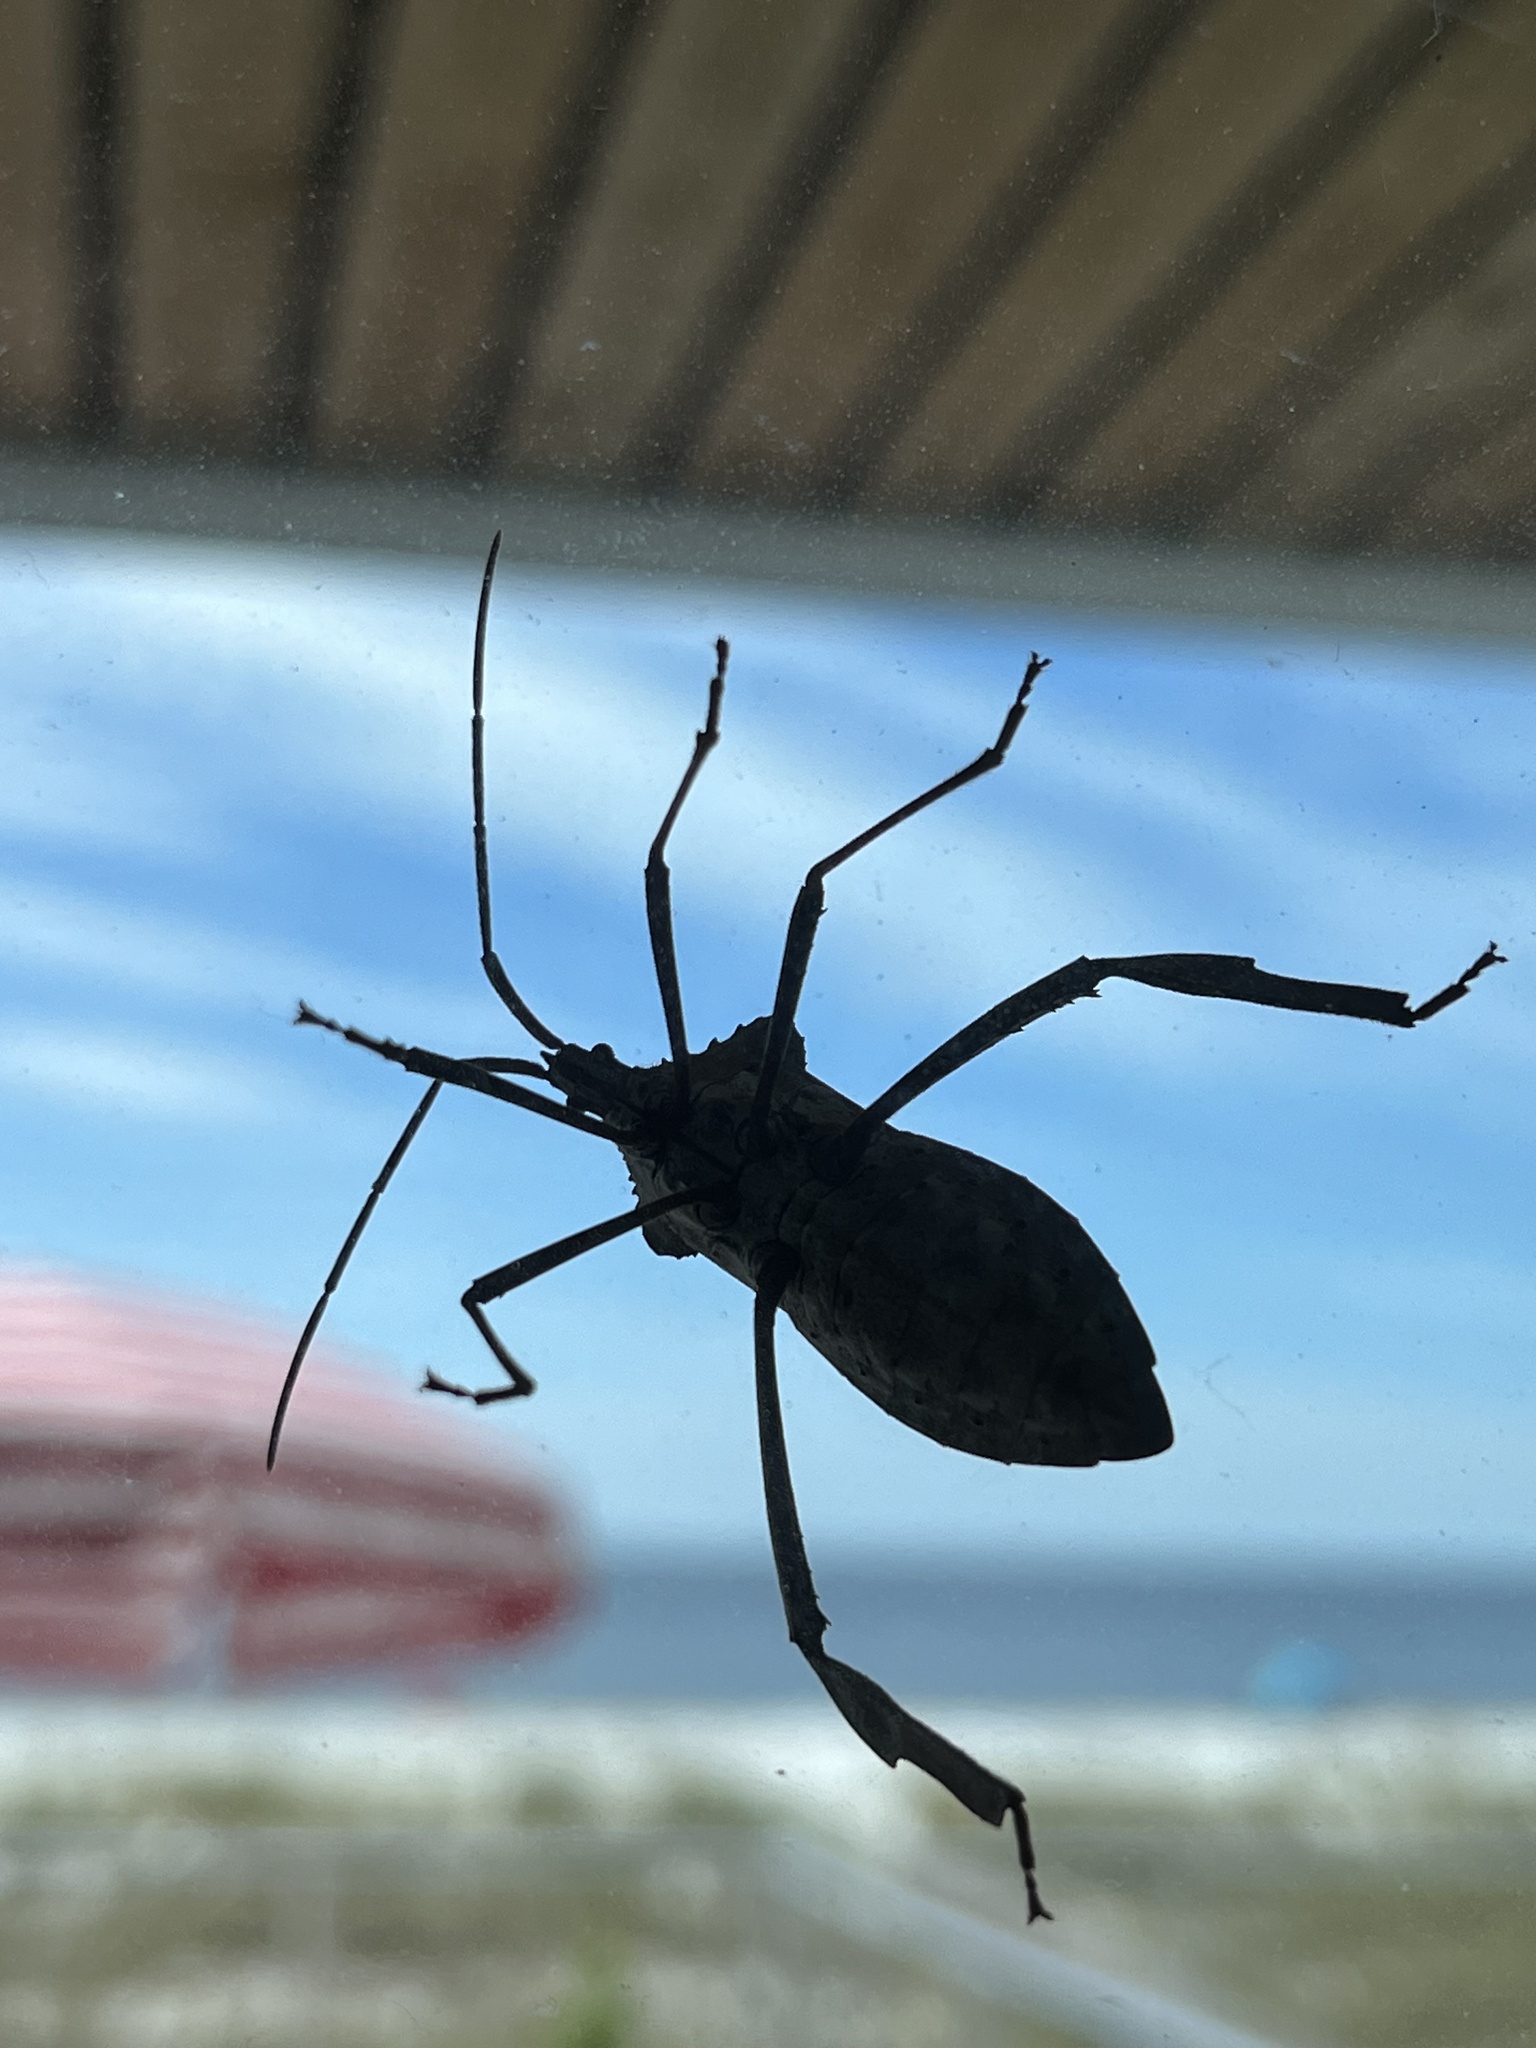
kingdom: Animalia
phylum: Arthropoda
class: Insecta
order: Hemiptera
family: Coreidae
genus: Acanthocephala
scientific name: Acanthocephala declivis
